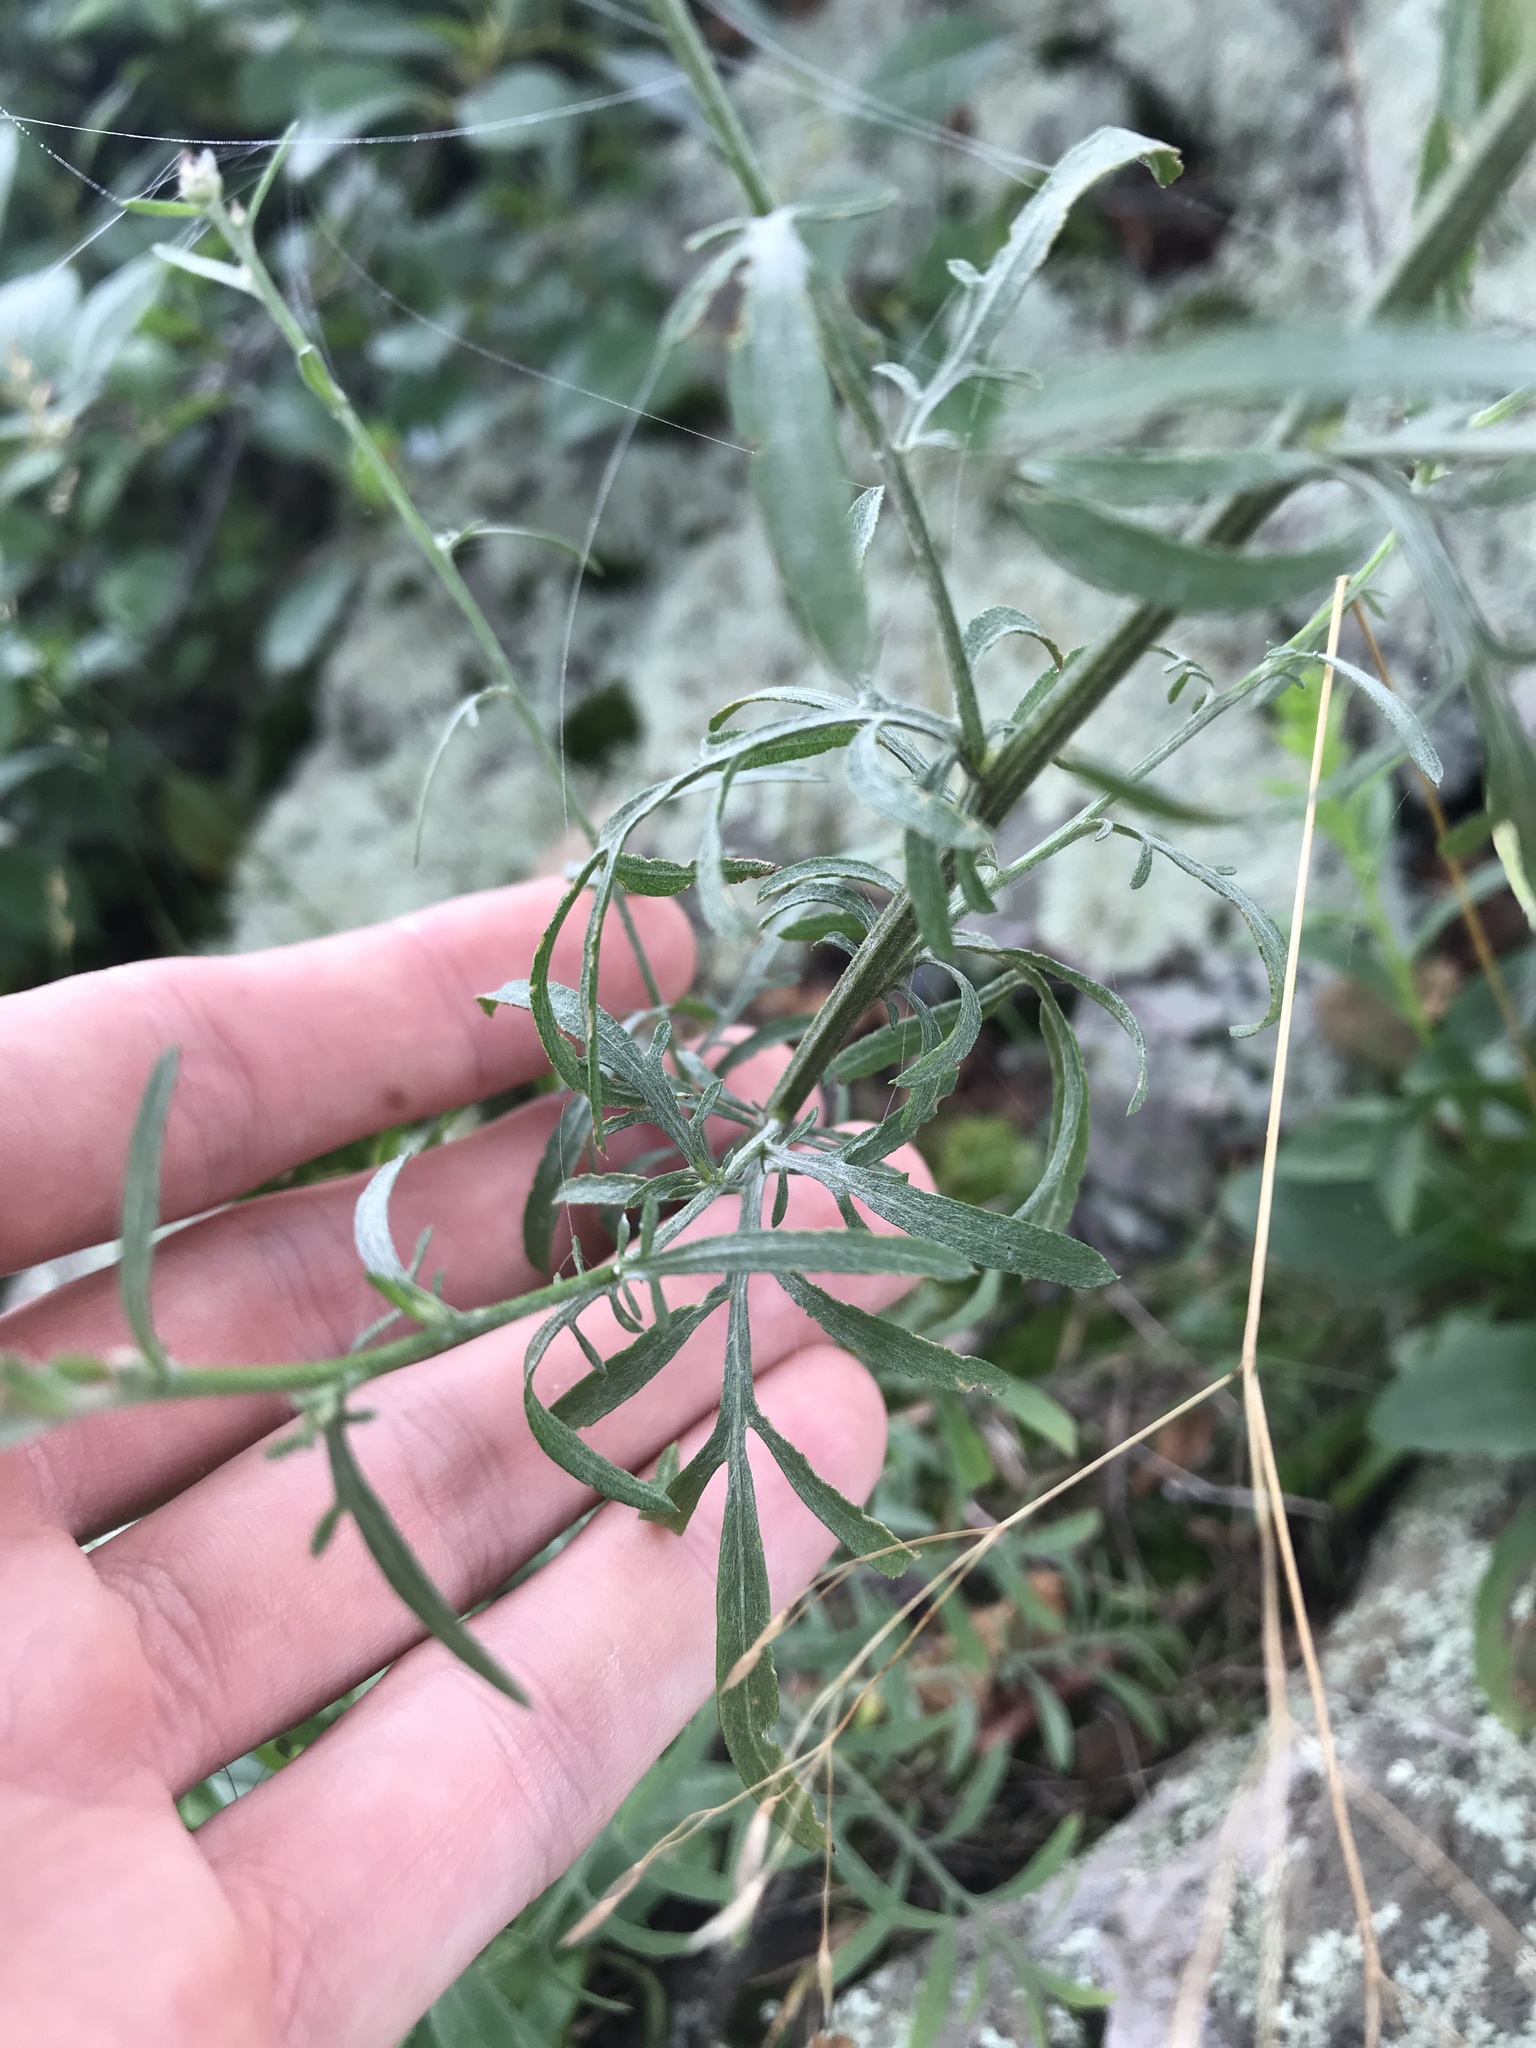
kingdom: Plantae
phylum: Tracheophyta
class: Magnoliopsida
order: Asterales
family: Asteraceae
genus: Centaurea
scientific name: Centaurea stoebe
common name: Spotted knapweed
